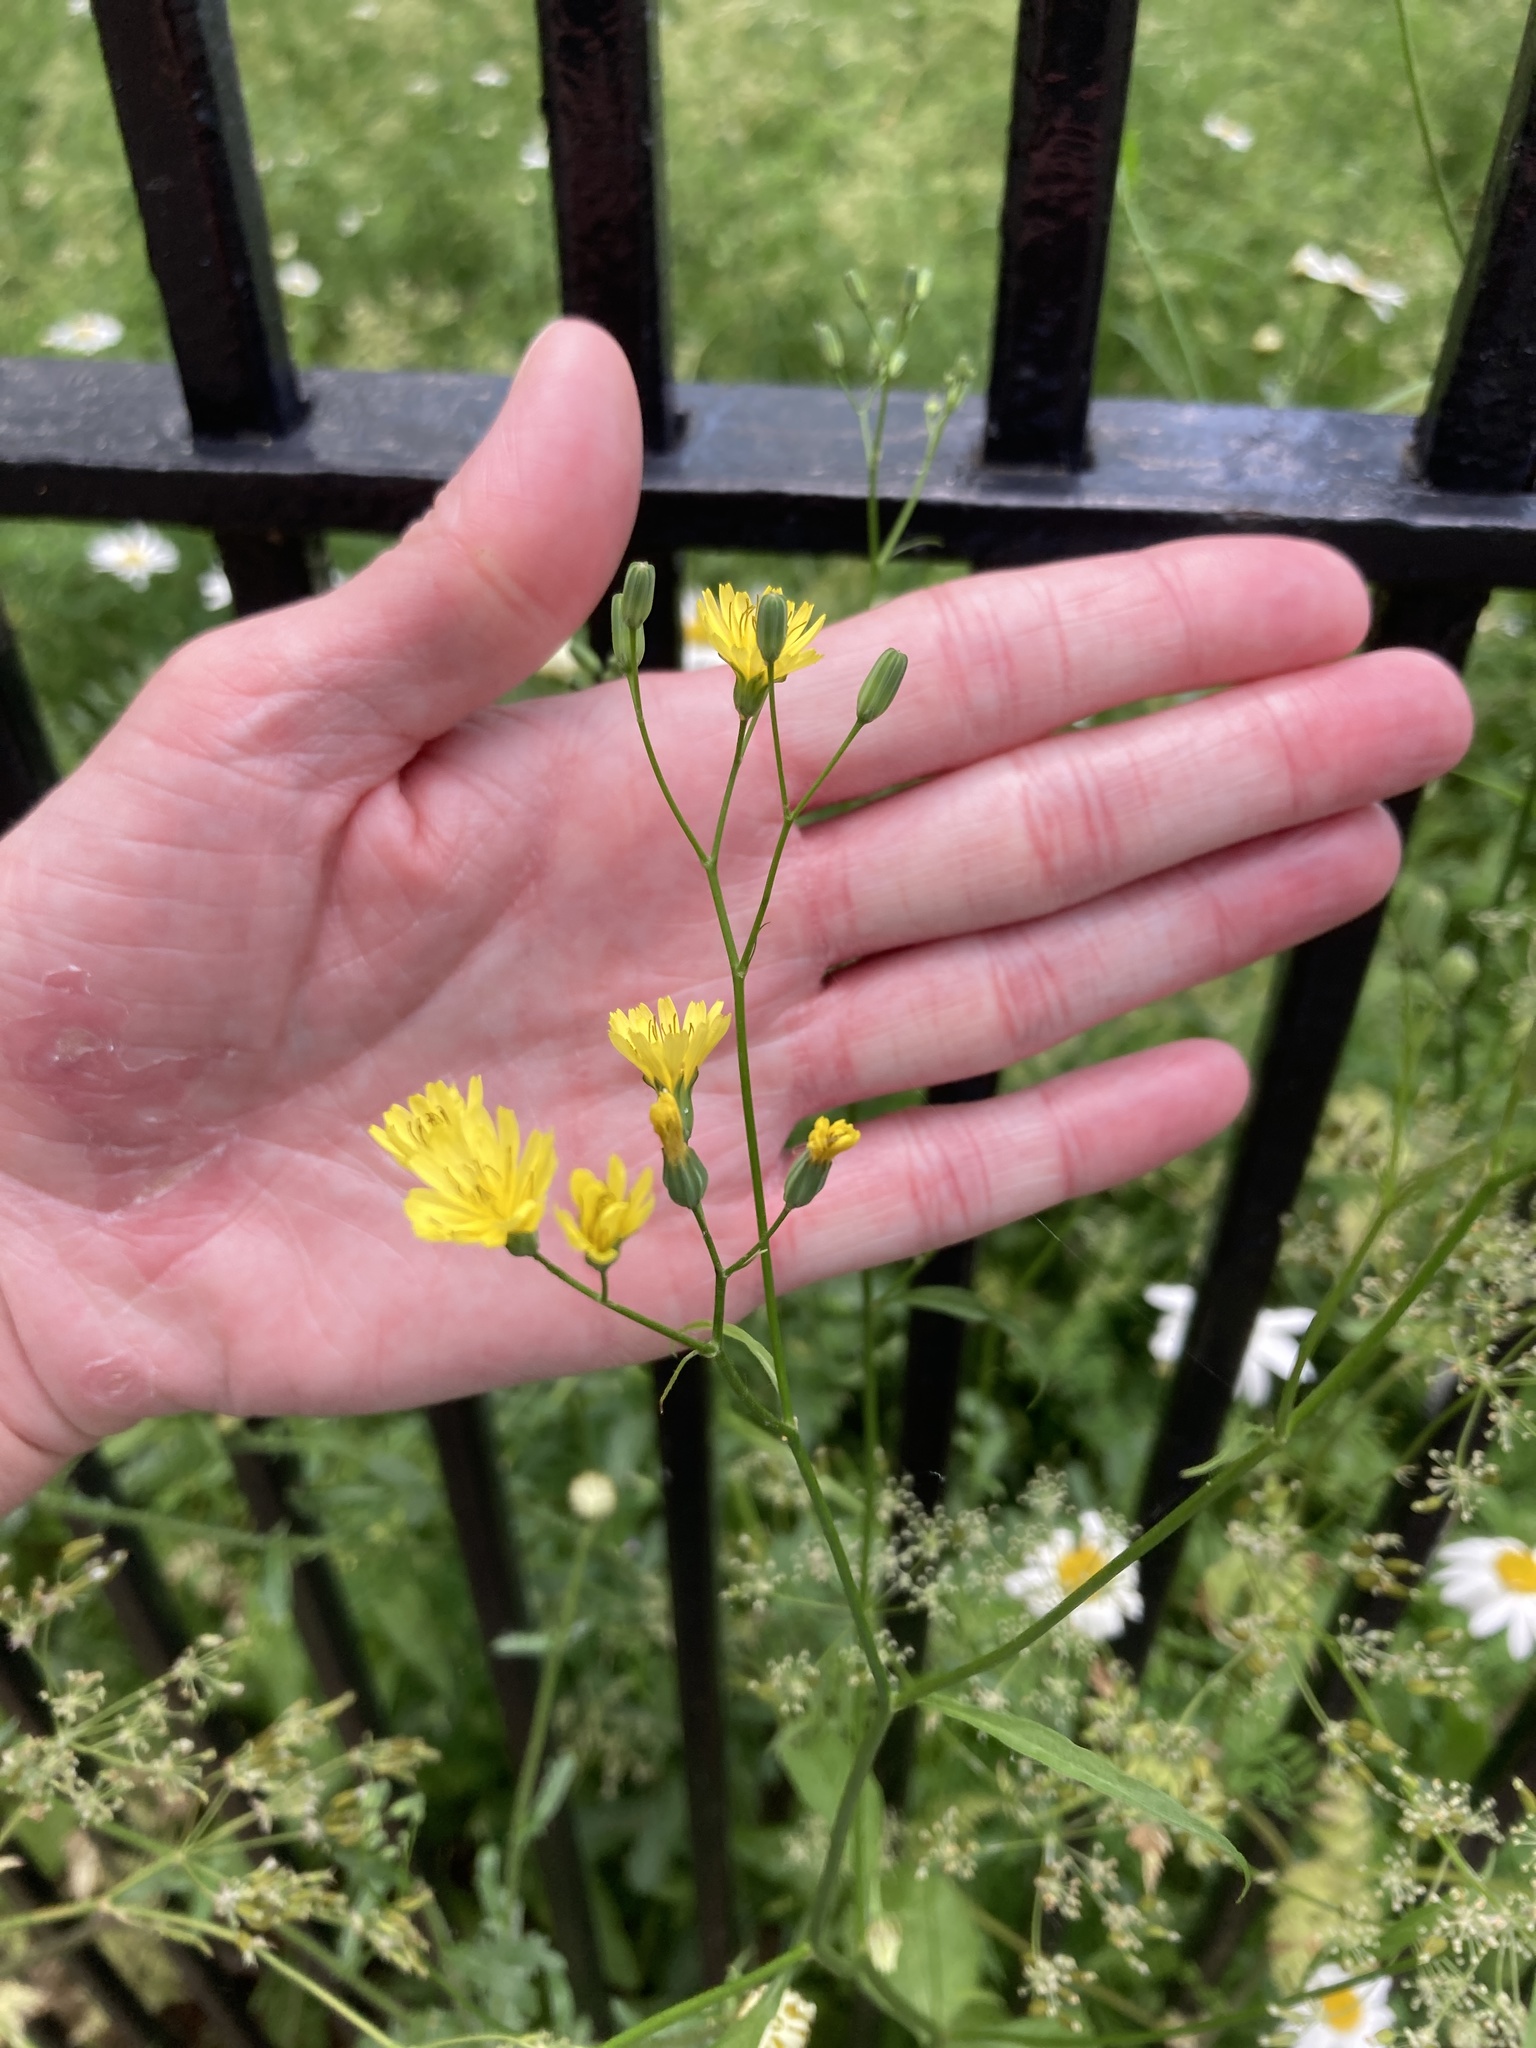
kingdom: Plantae
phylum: Tracheophyta
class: Magnoliopsida
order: Asterales
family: Asteraceae
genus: Lapsana
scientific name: Lapsana communis
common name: Nipplewort
